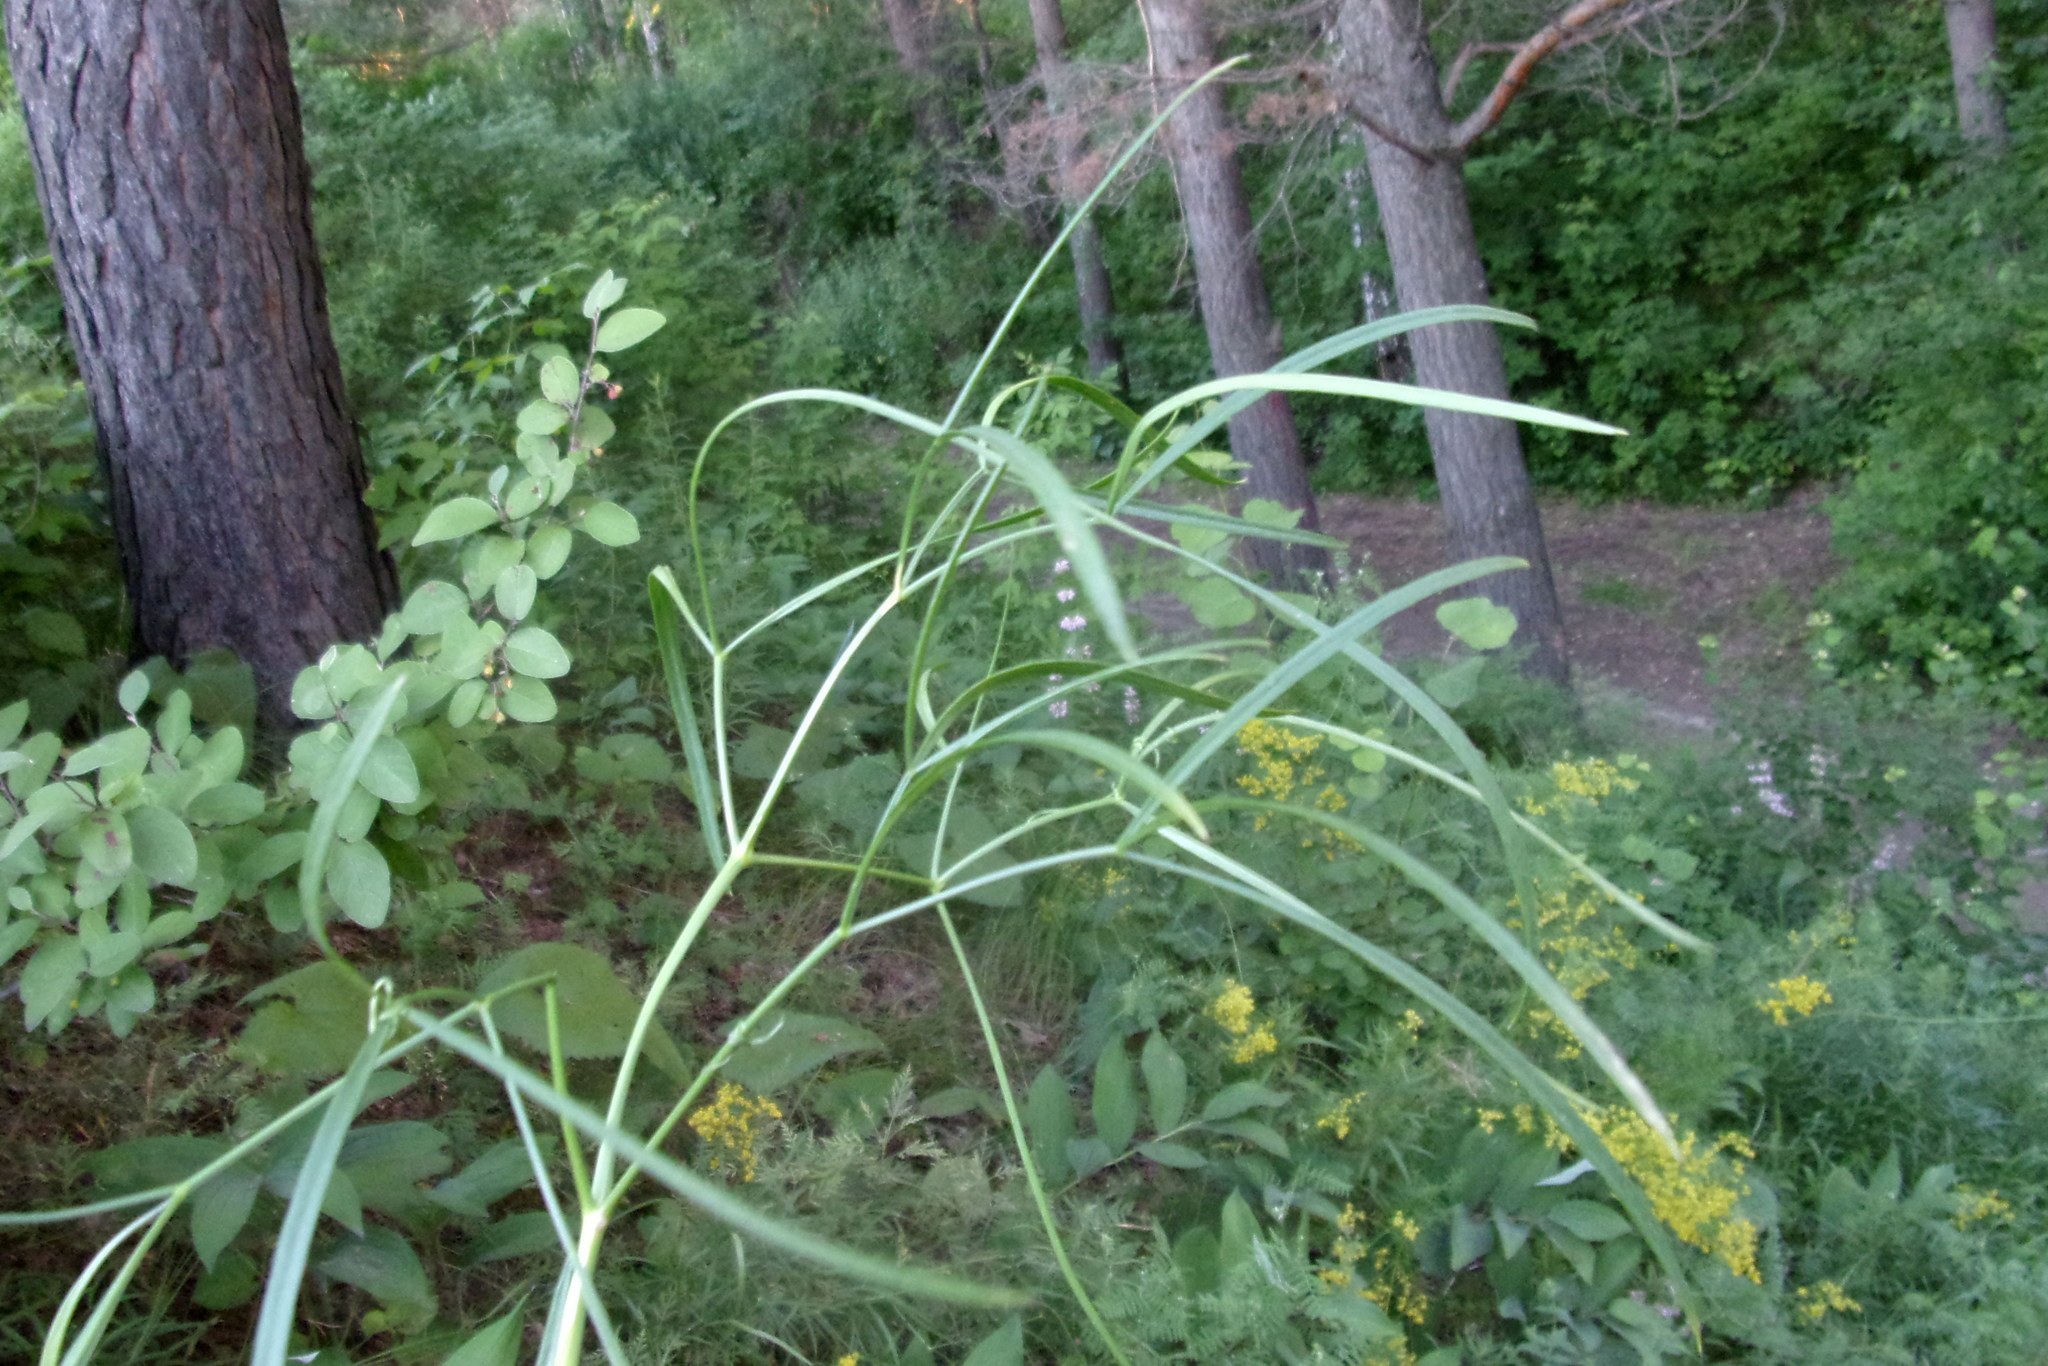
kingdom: Plantae
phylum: Tracheophyta
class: Magnoliopsida
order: Apiales
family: Apiaceae
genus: Peucedanum
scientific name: Peucedanum morisonii
